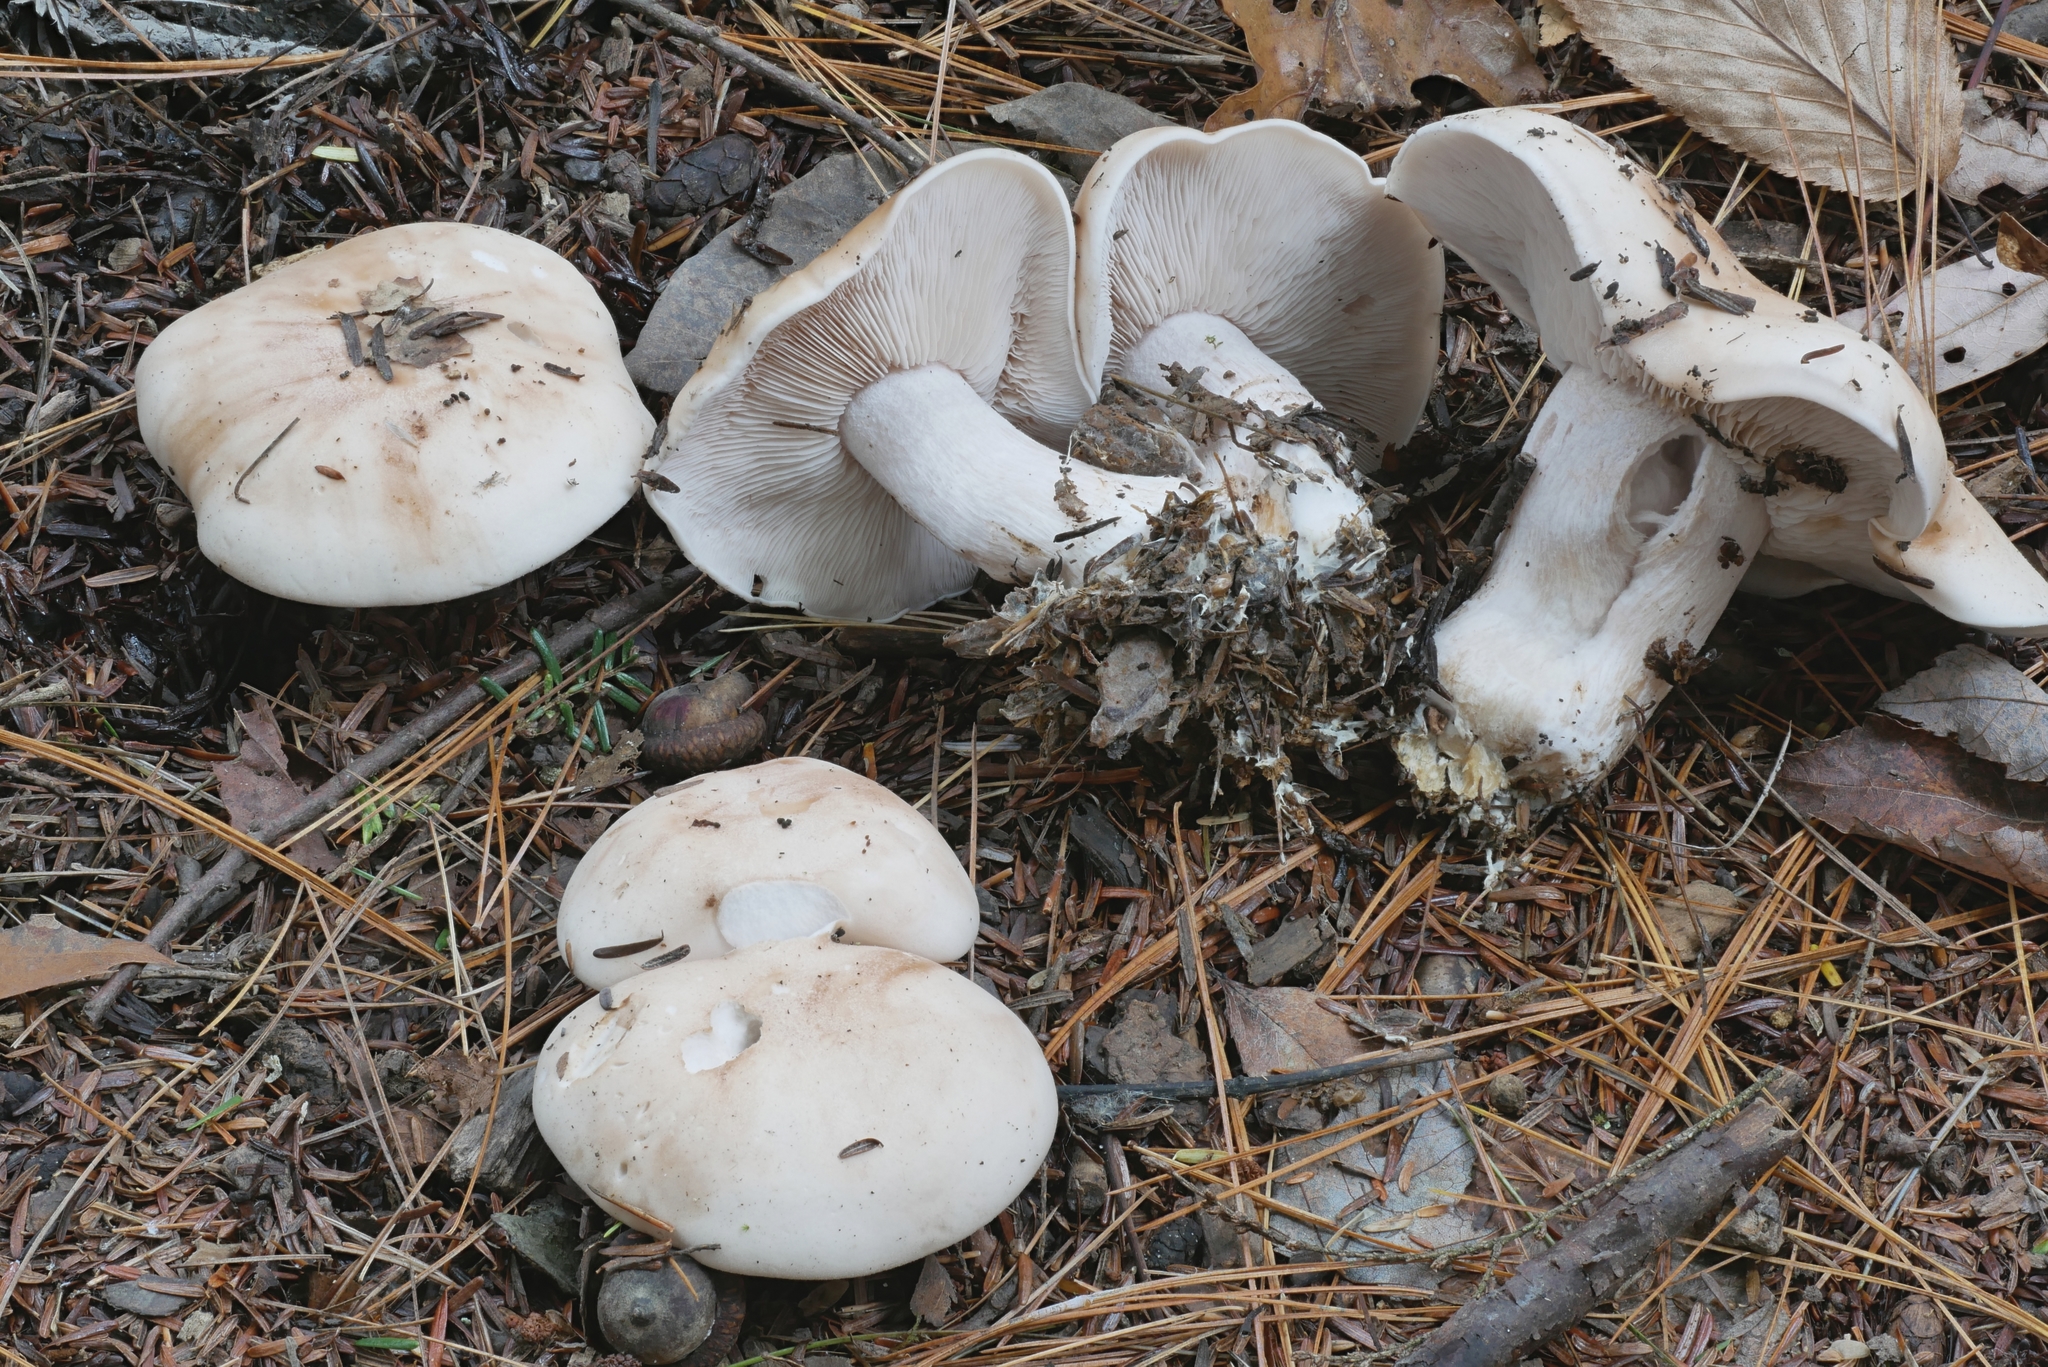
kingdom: Fungi
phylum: Basidiomycota
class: Agaricomycetes
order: Agaricales
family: Tricholomataceae
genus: Collybia
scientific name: Collybia
